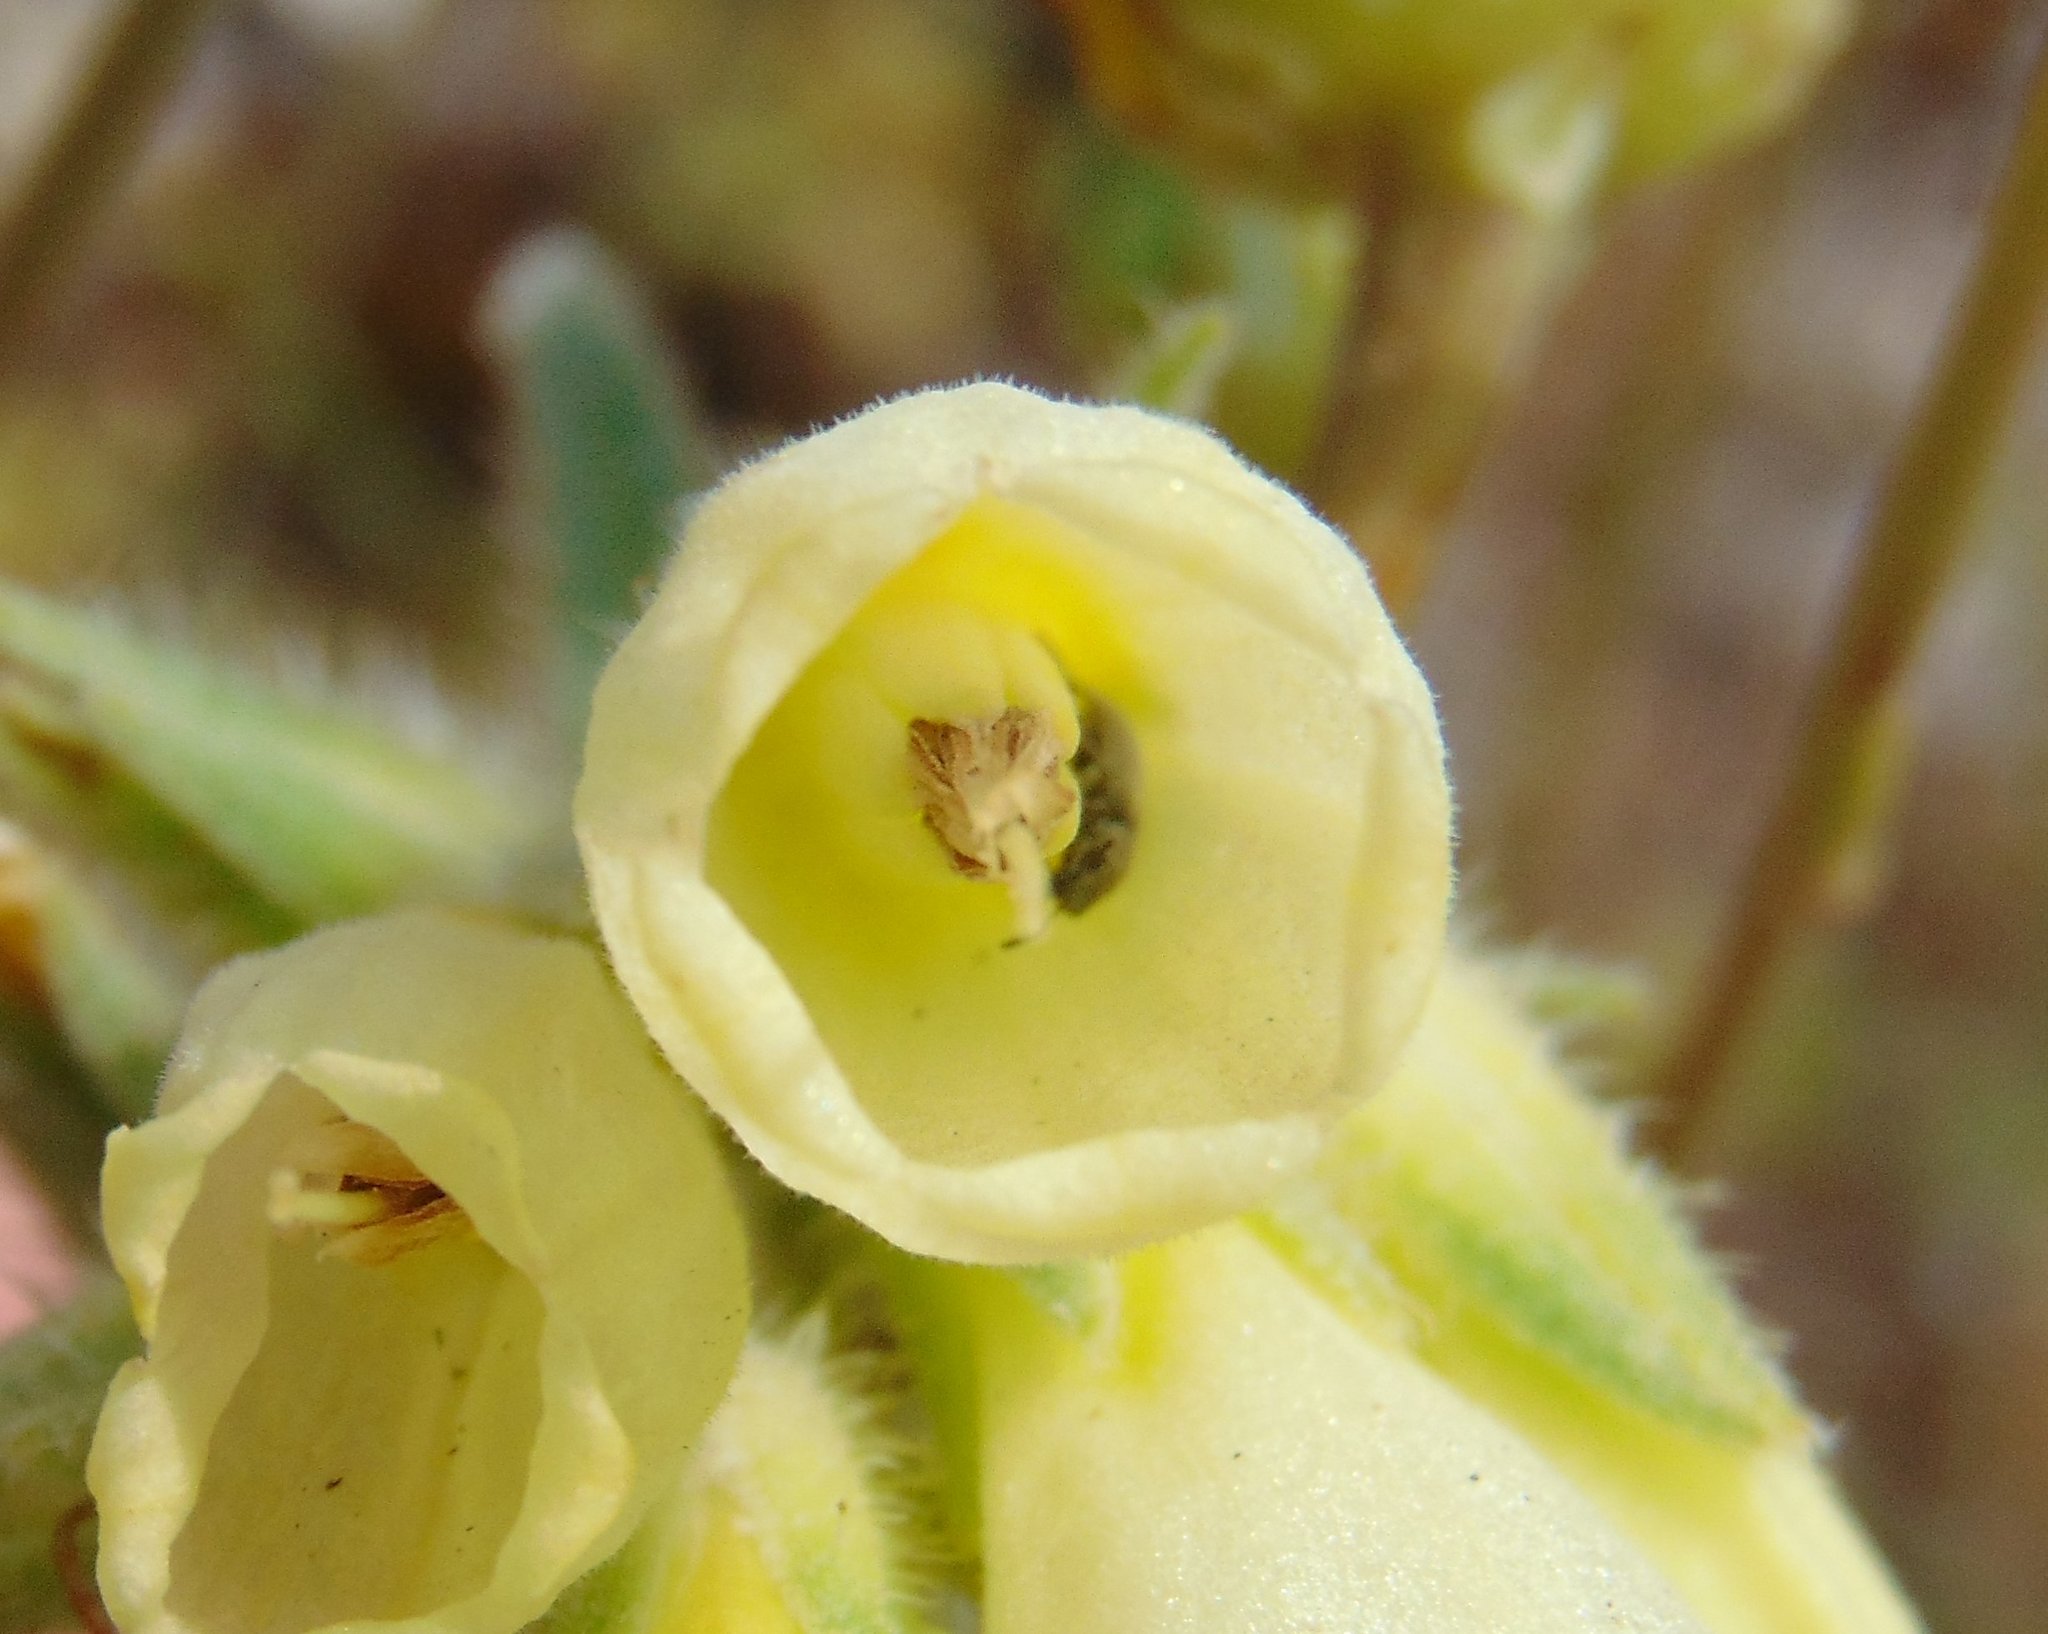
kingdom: Plantae
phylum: Tracheophyta
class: Magnoliopsida
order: Boraginales
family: Boraginaceae
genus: Onosma
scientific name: Onosma echioides
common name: Goldendrop
